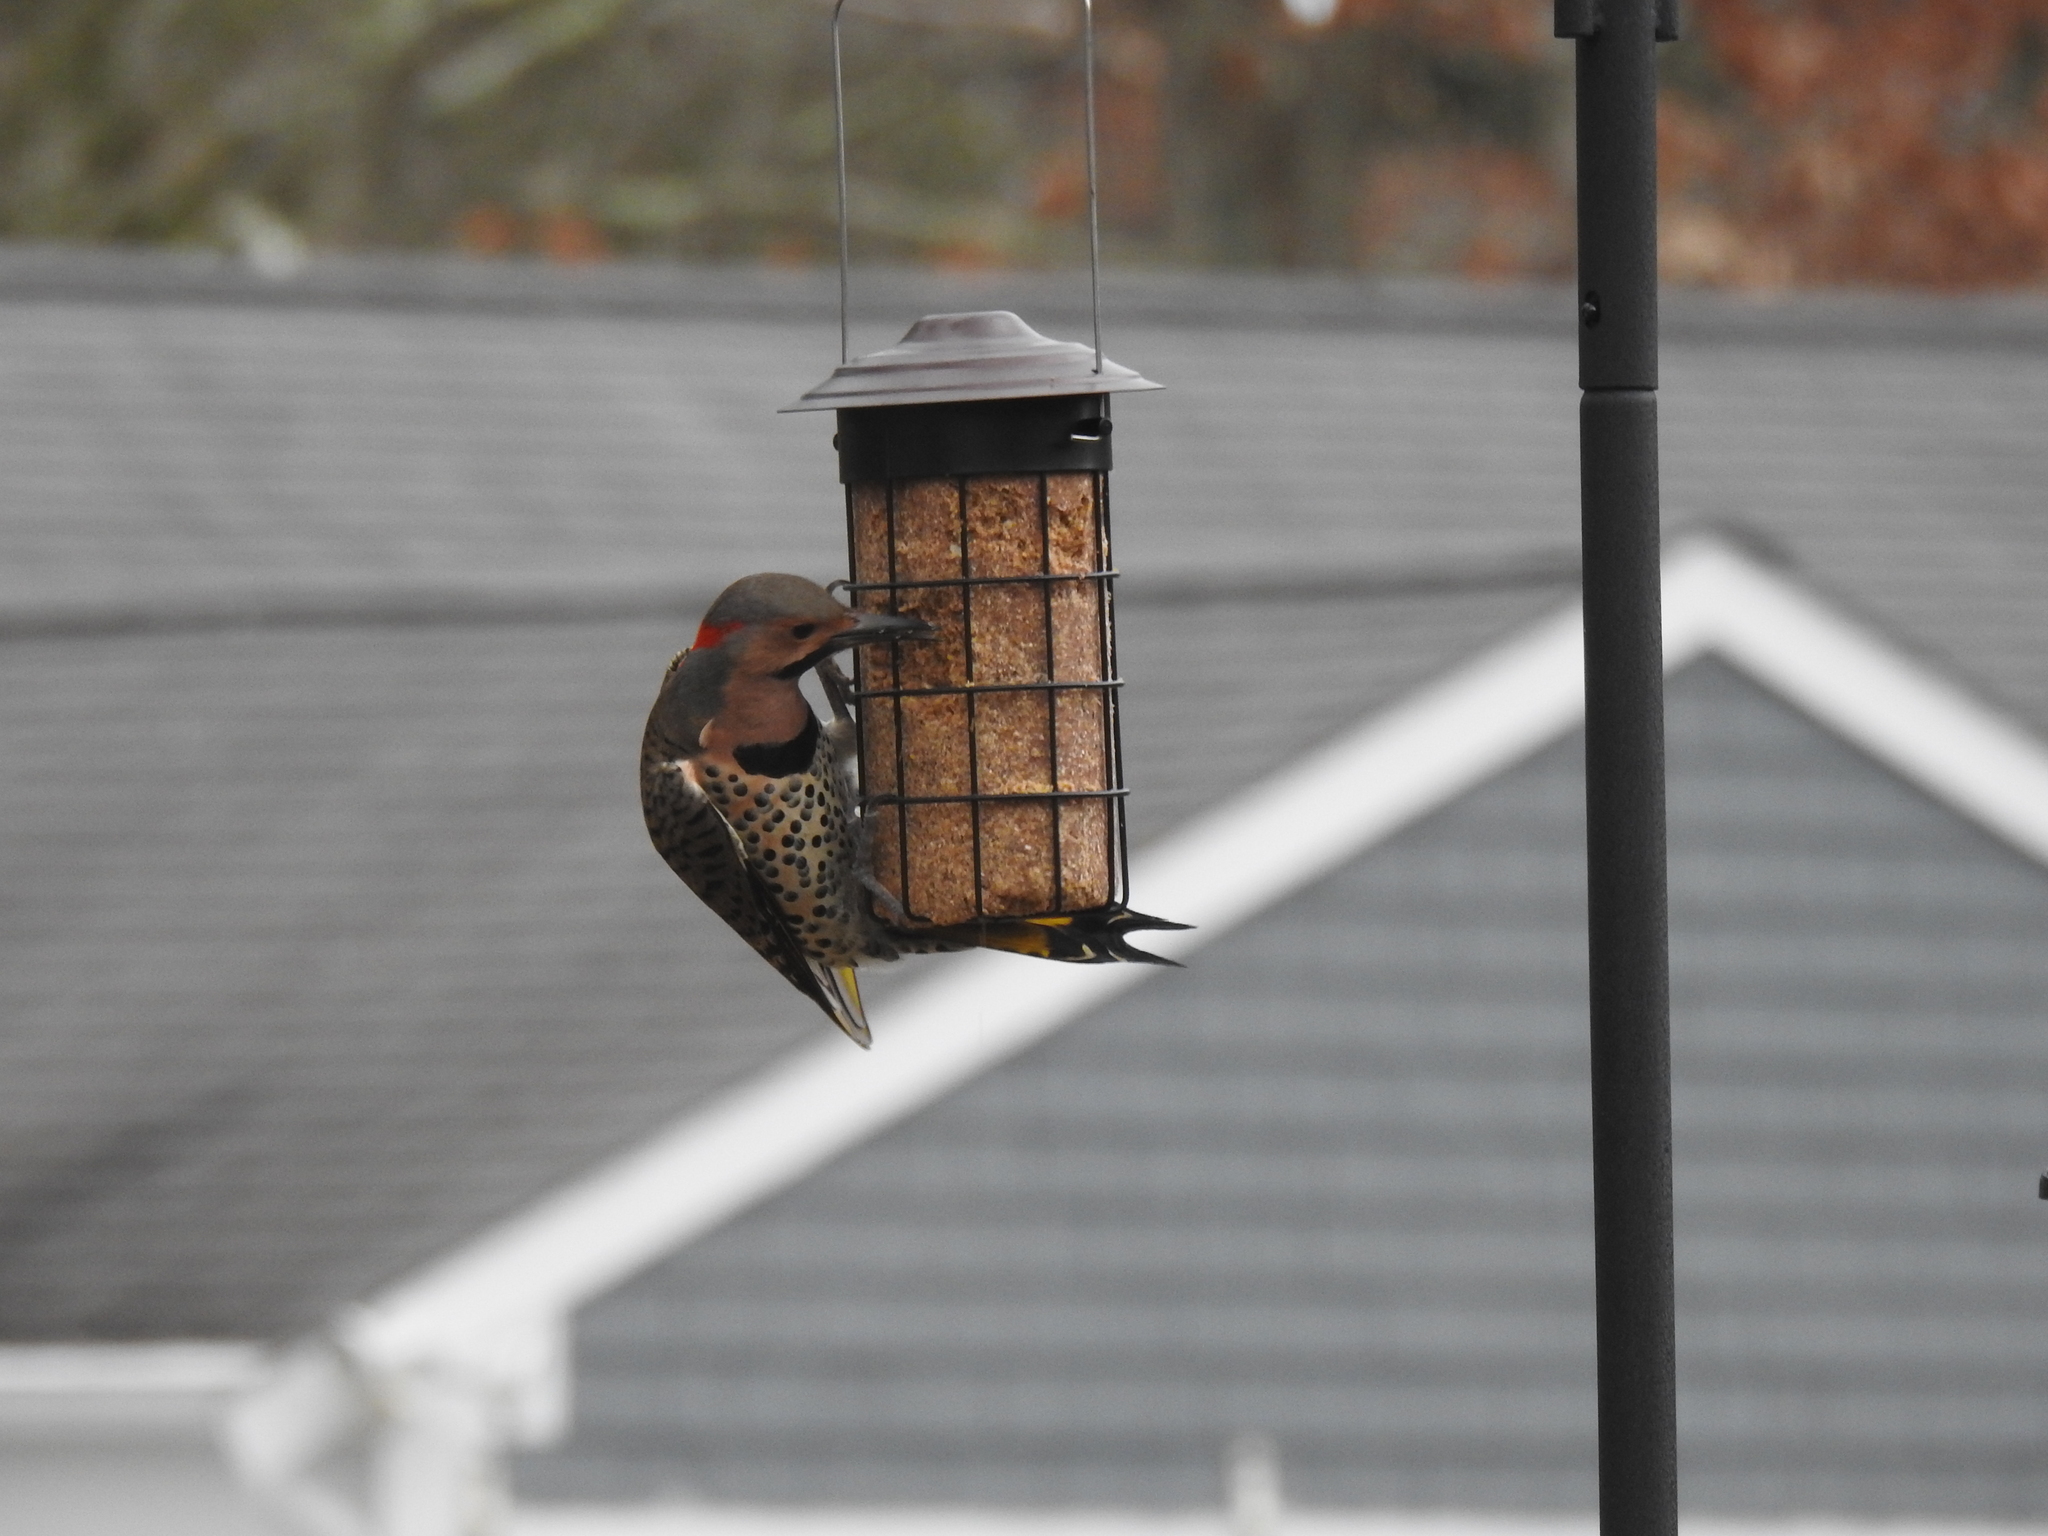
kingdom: Animalia
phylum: Chordata
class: Aves
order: Piciformes
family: Picidae
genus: Colaptes
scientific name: Colaptes auratus
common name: Northern flicker
